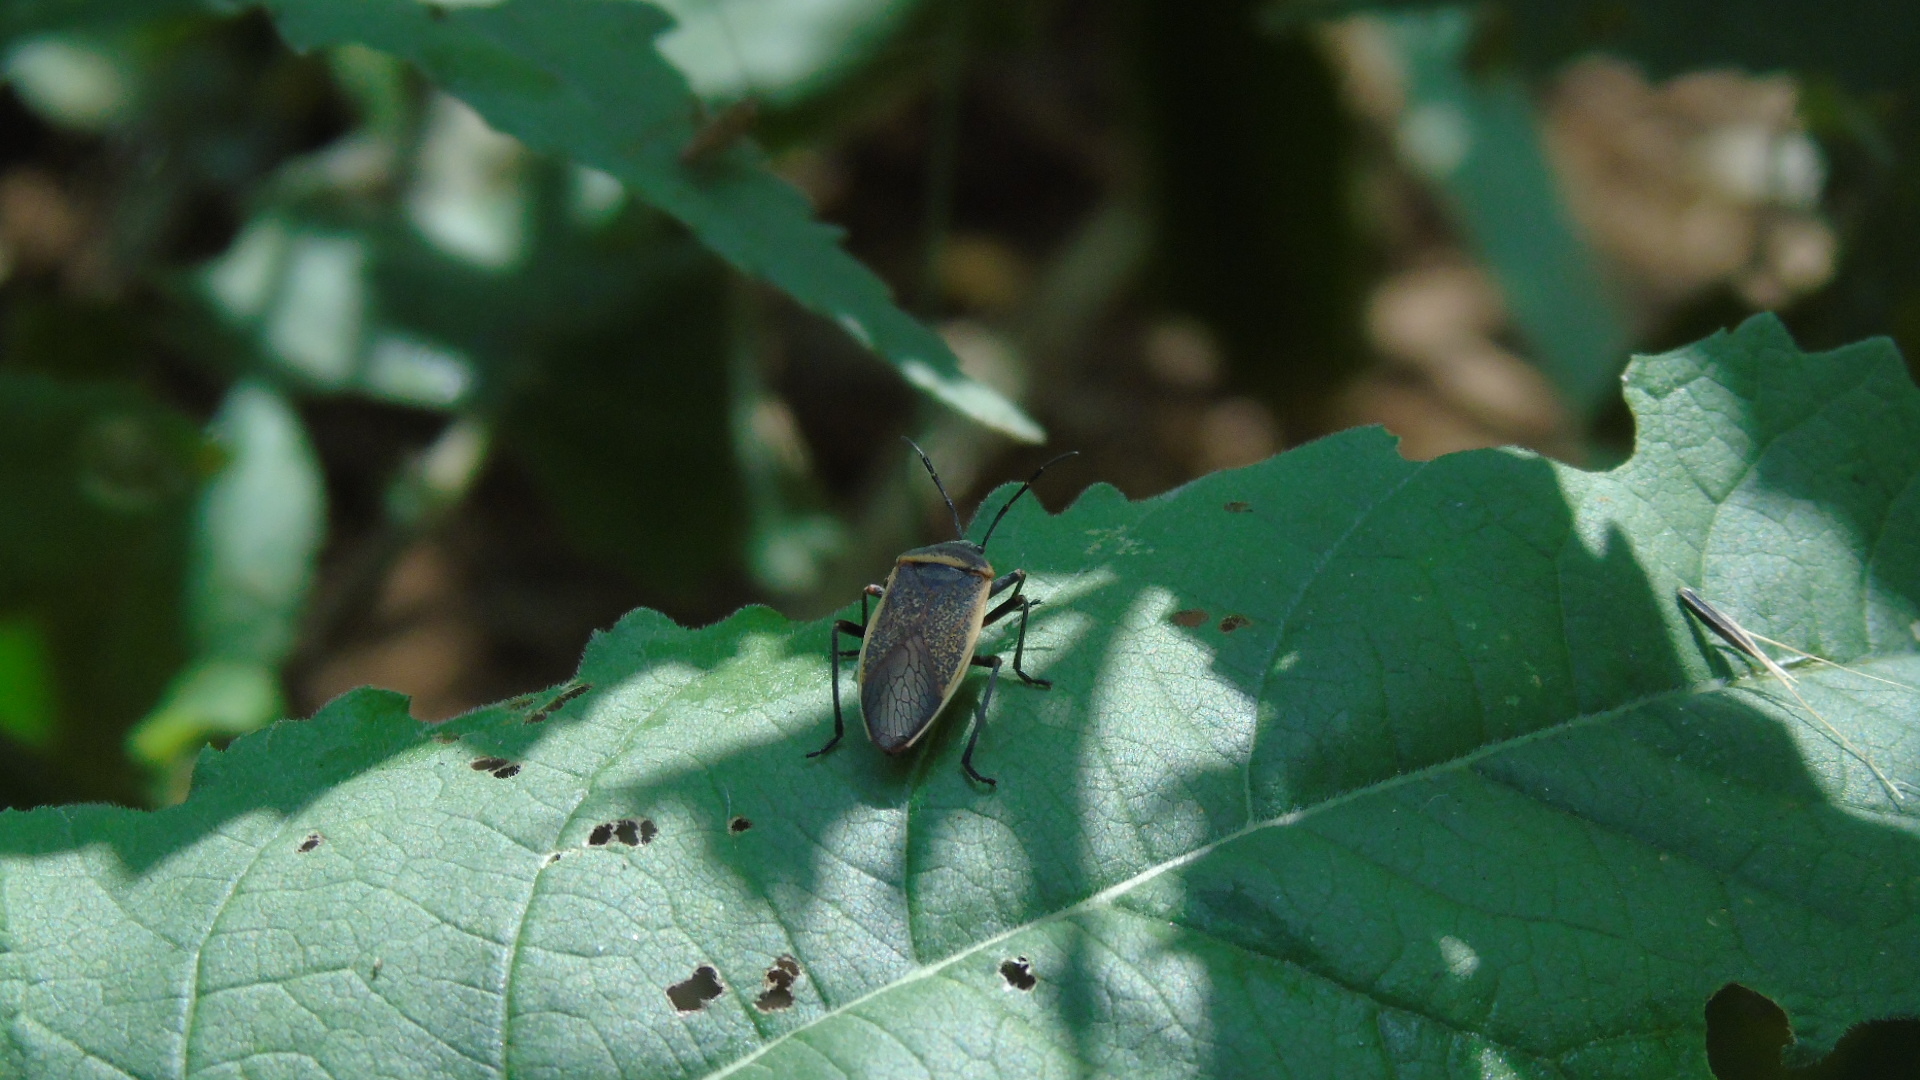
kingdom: Animalia
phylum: Arthropoda
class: Insecta
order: Hemiptera
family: Largidae
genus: Largus
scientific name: Largus
